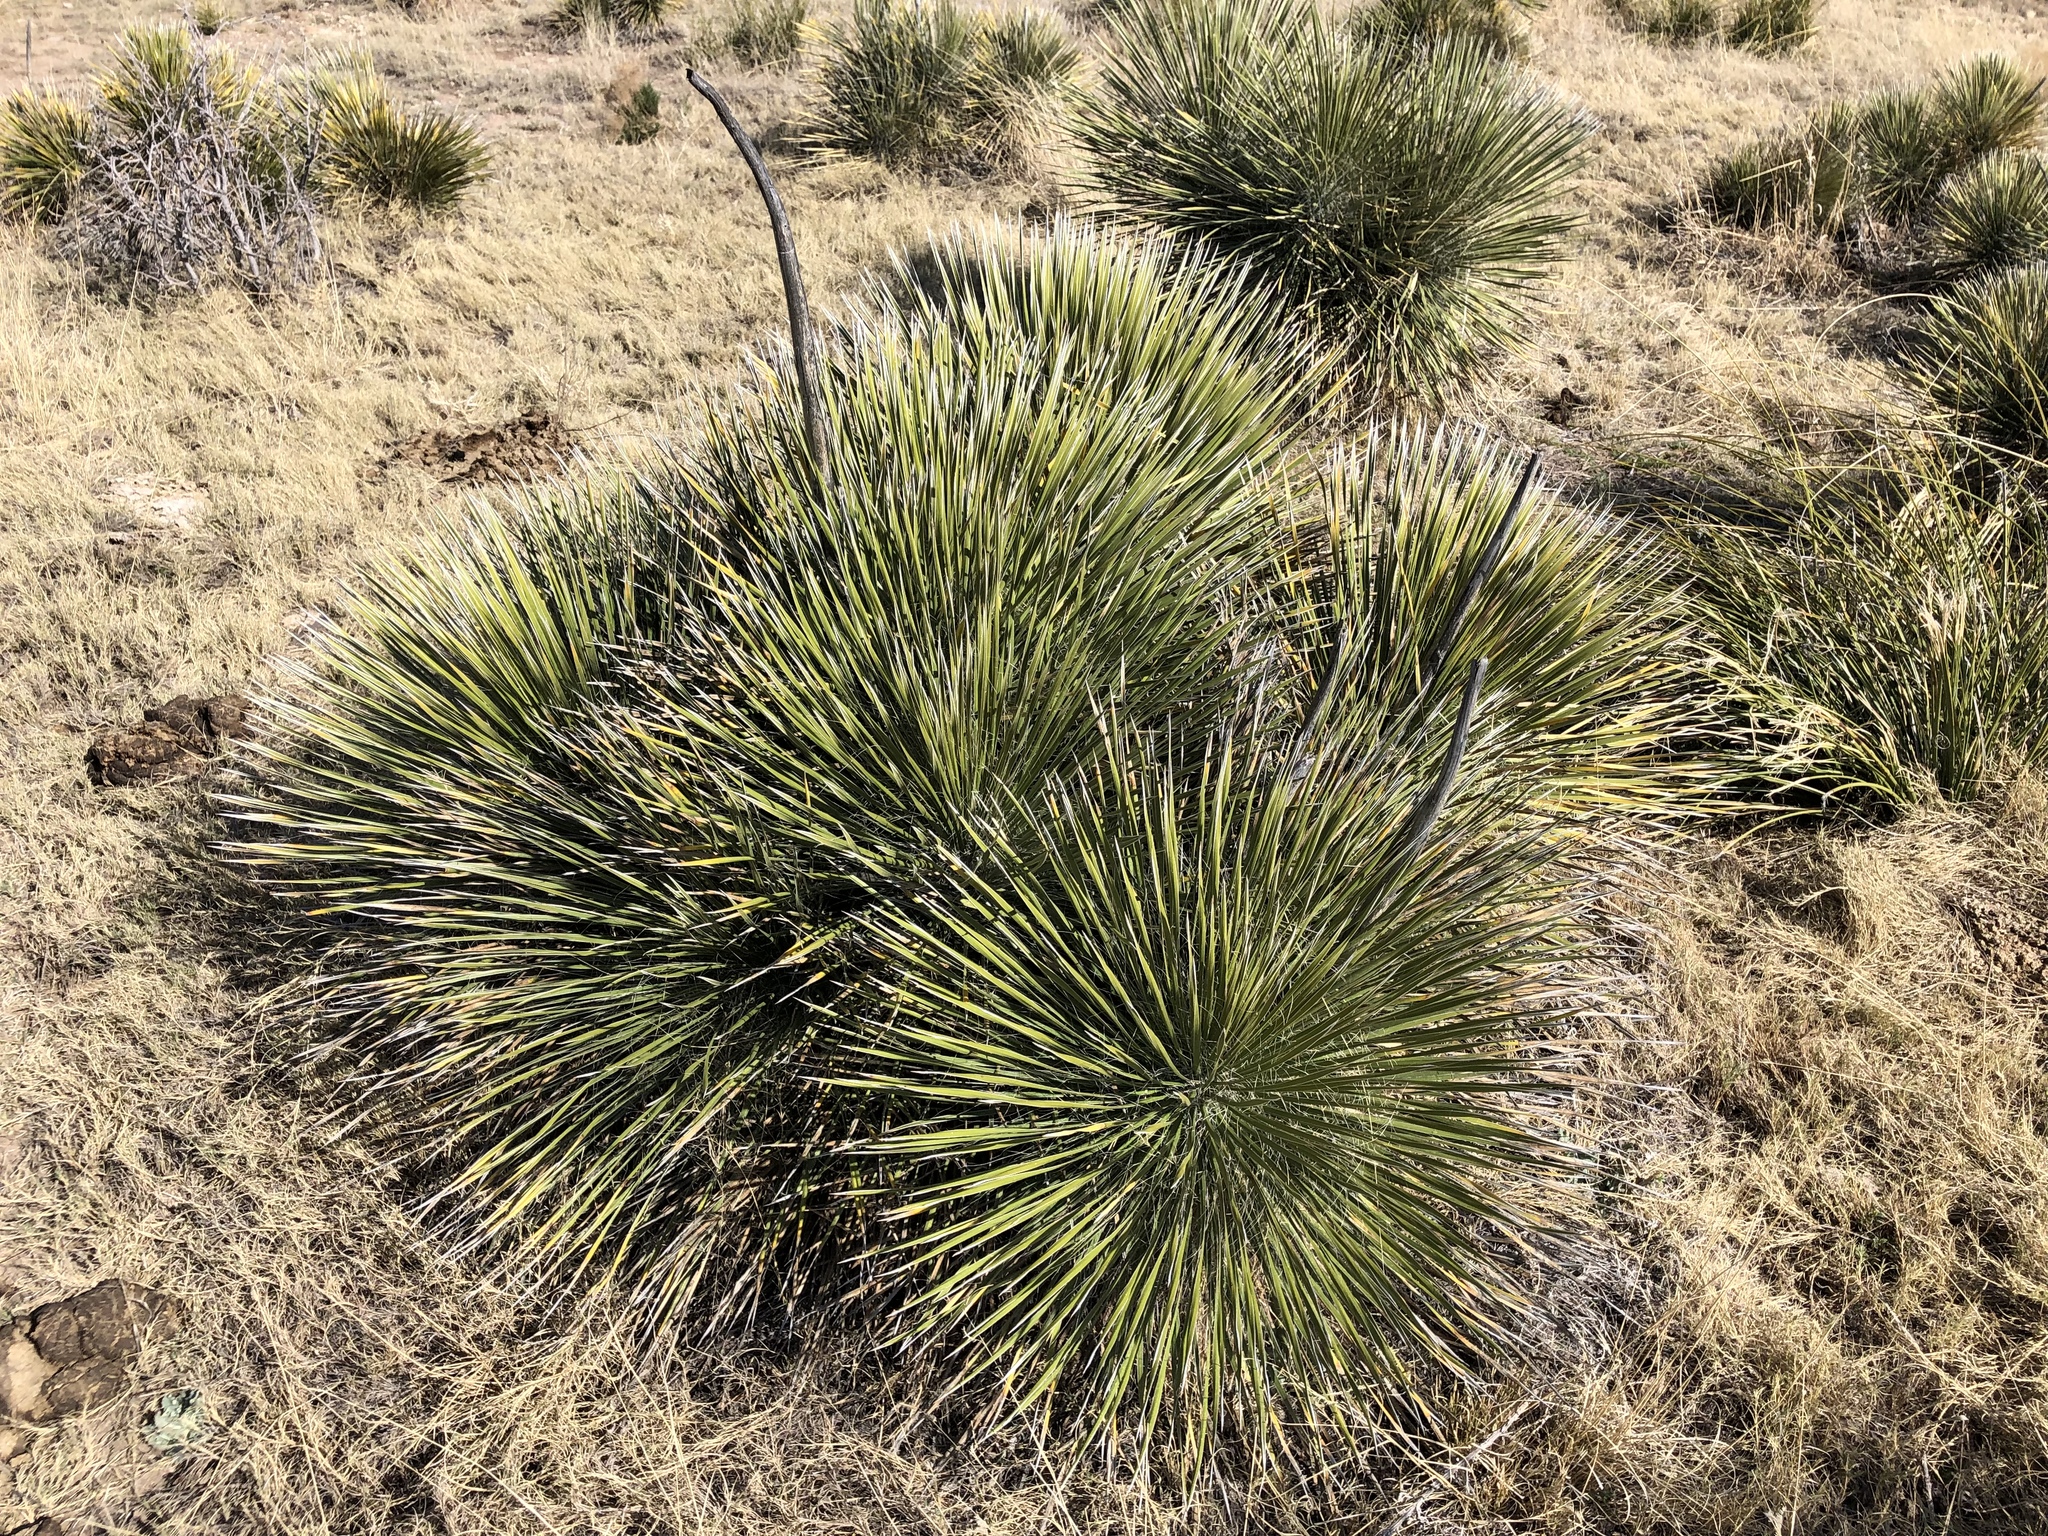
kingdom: Plantae
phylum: Tracheophyta
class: Liliopsida
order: Asparagales
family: Asparagaceae
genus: Yucca
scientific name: Yucca elata
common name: Palmella
